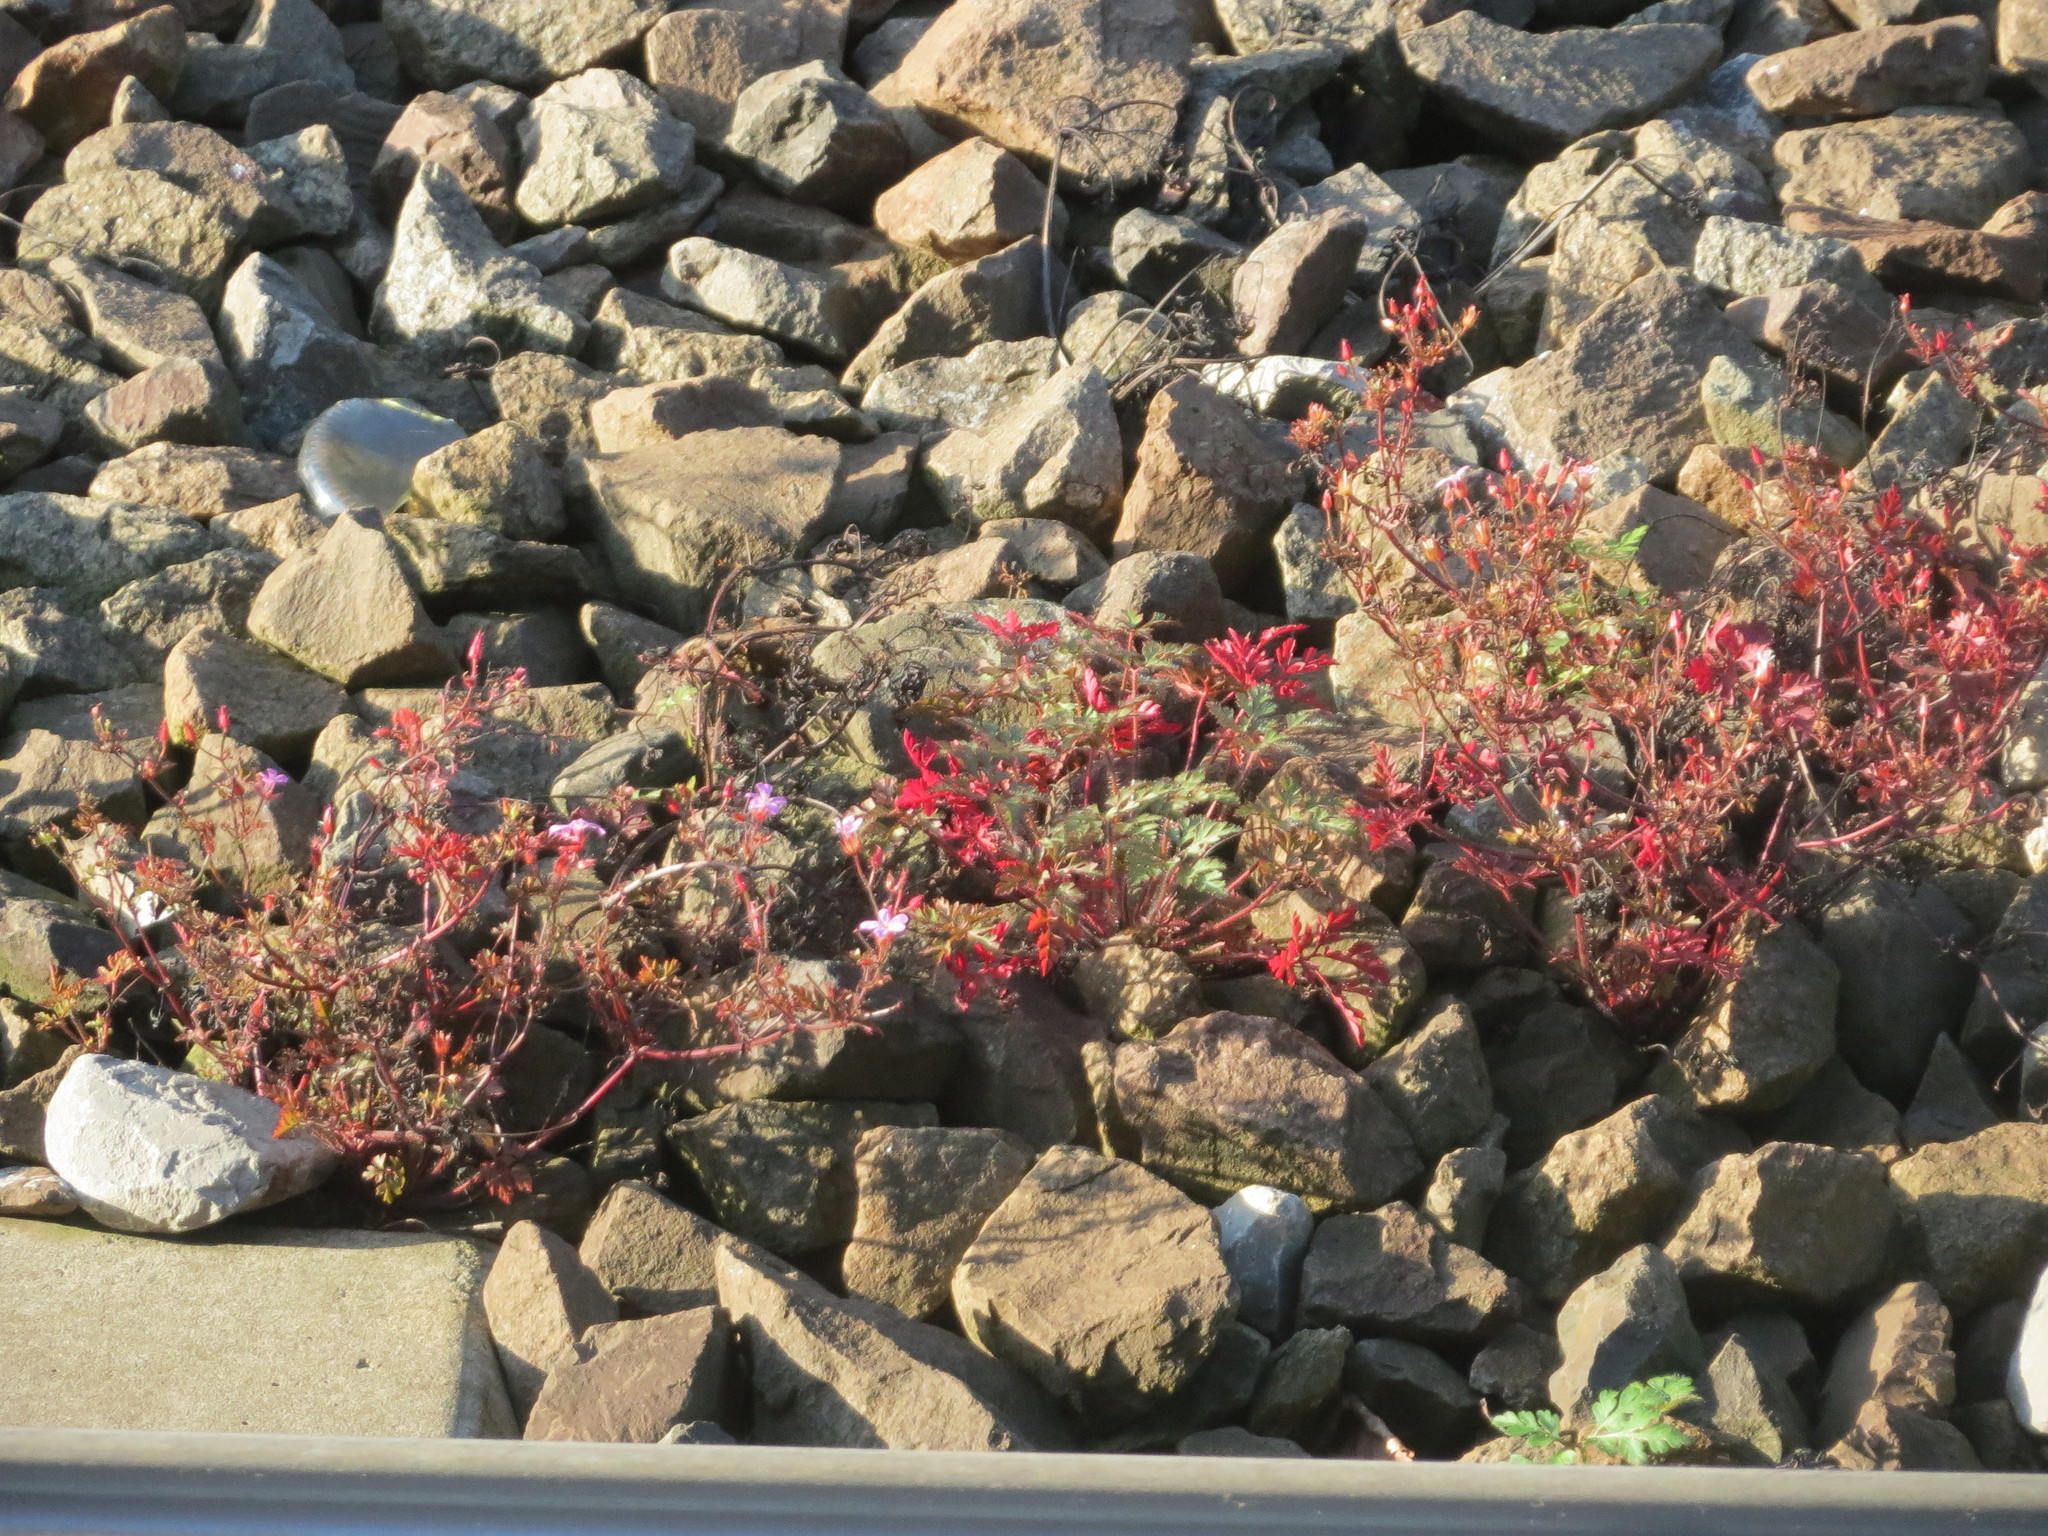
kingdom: Plantae
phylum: Tracheophyta
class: Magnoliopsida
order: Geraniales
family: Geraniaceae
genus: Geranium
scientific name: Geranium robertianum
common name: Herb-robert
